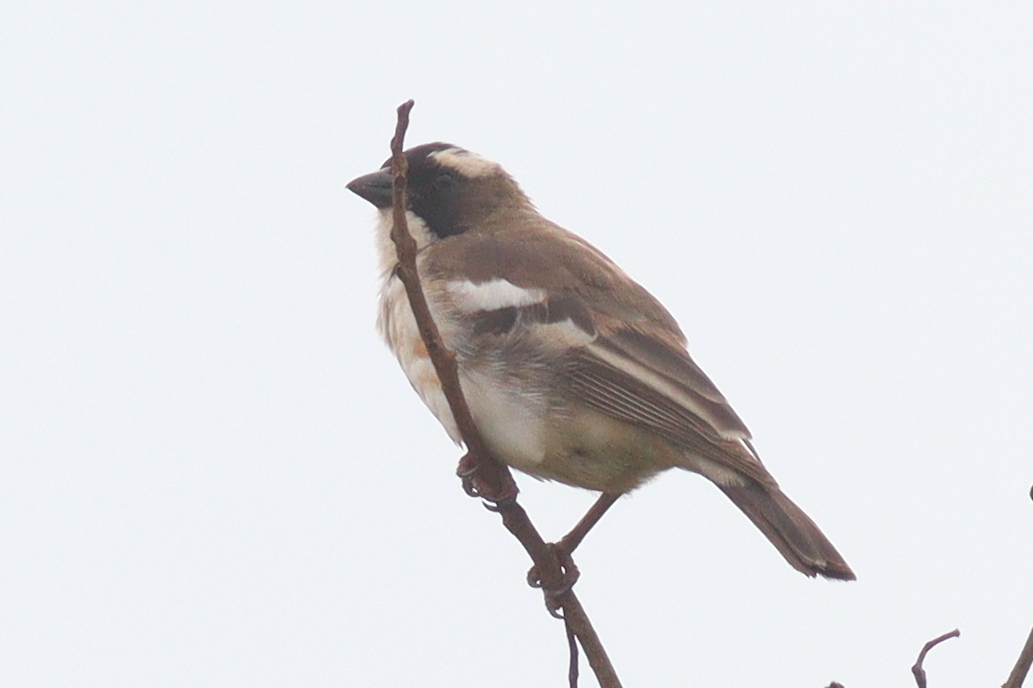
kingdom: Animalia
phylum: Chordata
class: Aves
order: Passeriformes
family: Passeridae
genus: Plocepasser
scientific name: Plocepasser mahali
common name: White-browed sparrow-weaver
